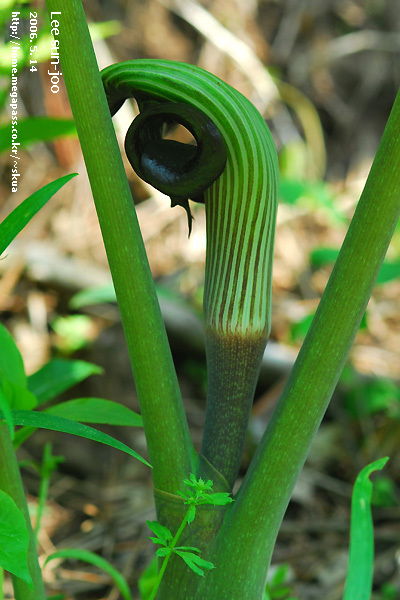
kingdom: Plantae
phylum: Tracheophyta
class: Liliopsida
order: Alismatales
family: Araceae
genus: Arisaema
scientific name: Arisaema ringens
